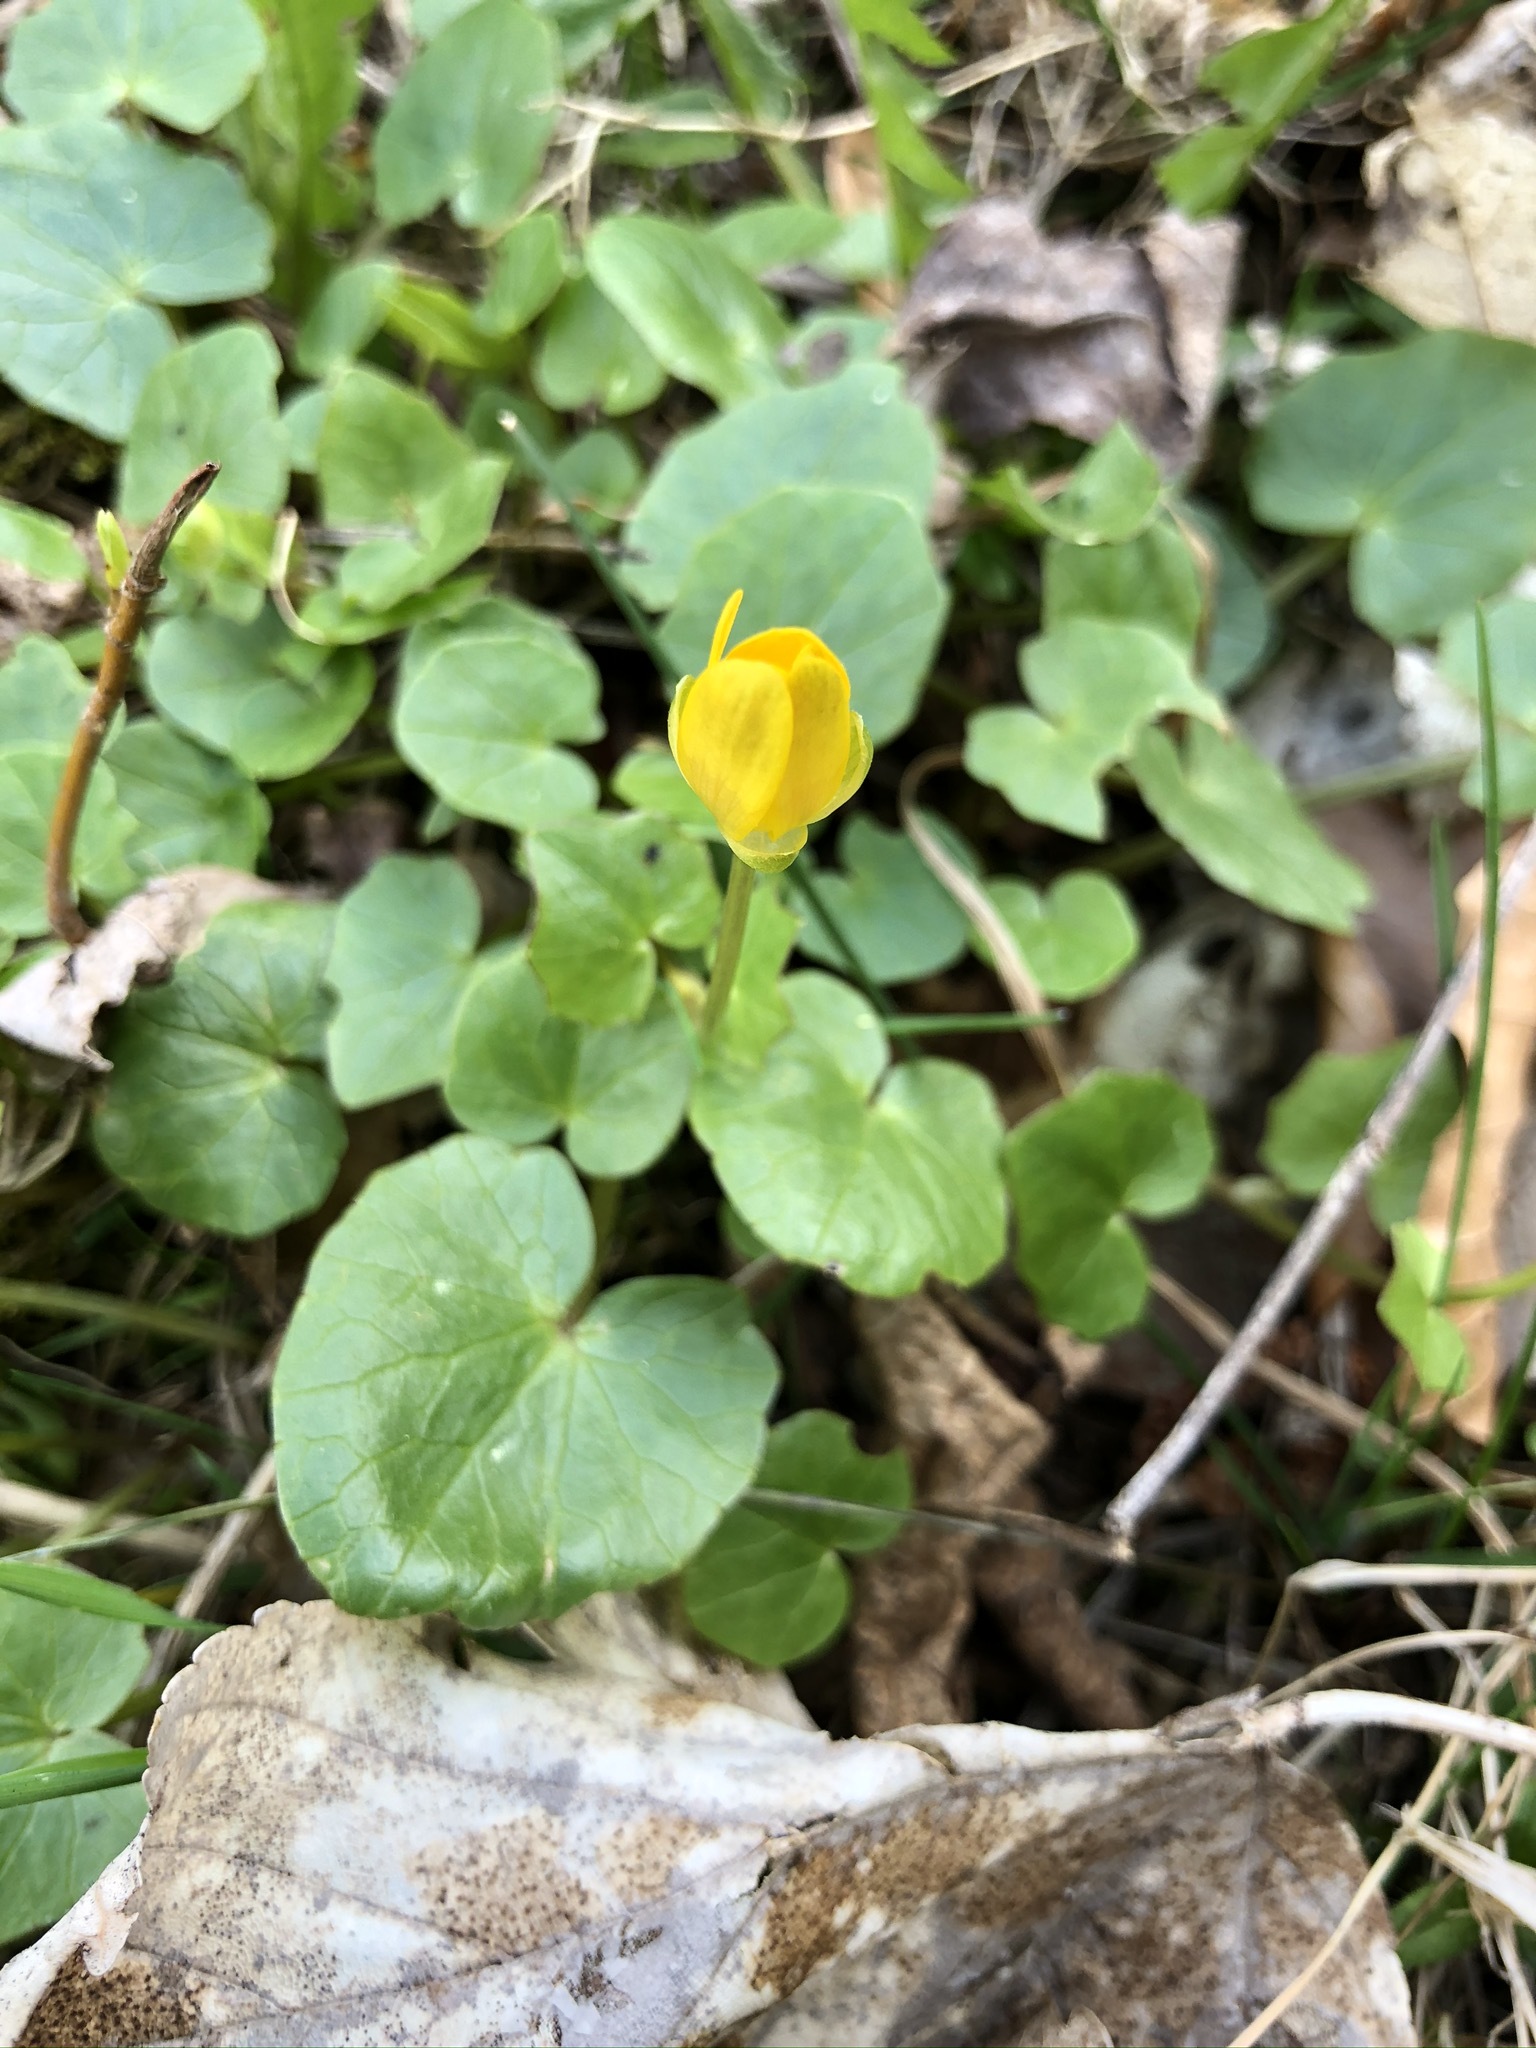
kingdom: Plantae
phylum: Tracheophyta
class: Magnoliopsida
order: Ranunculales
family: Ranunculaceae
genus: Ficaria
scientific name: Ficaria verna
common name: Lesser celandine
